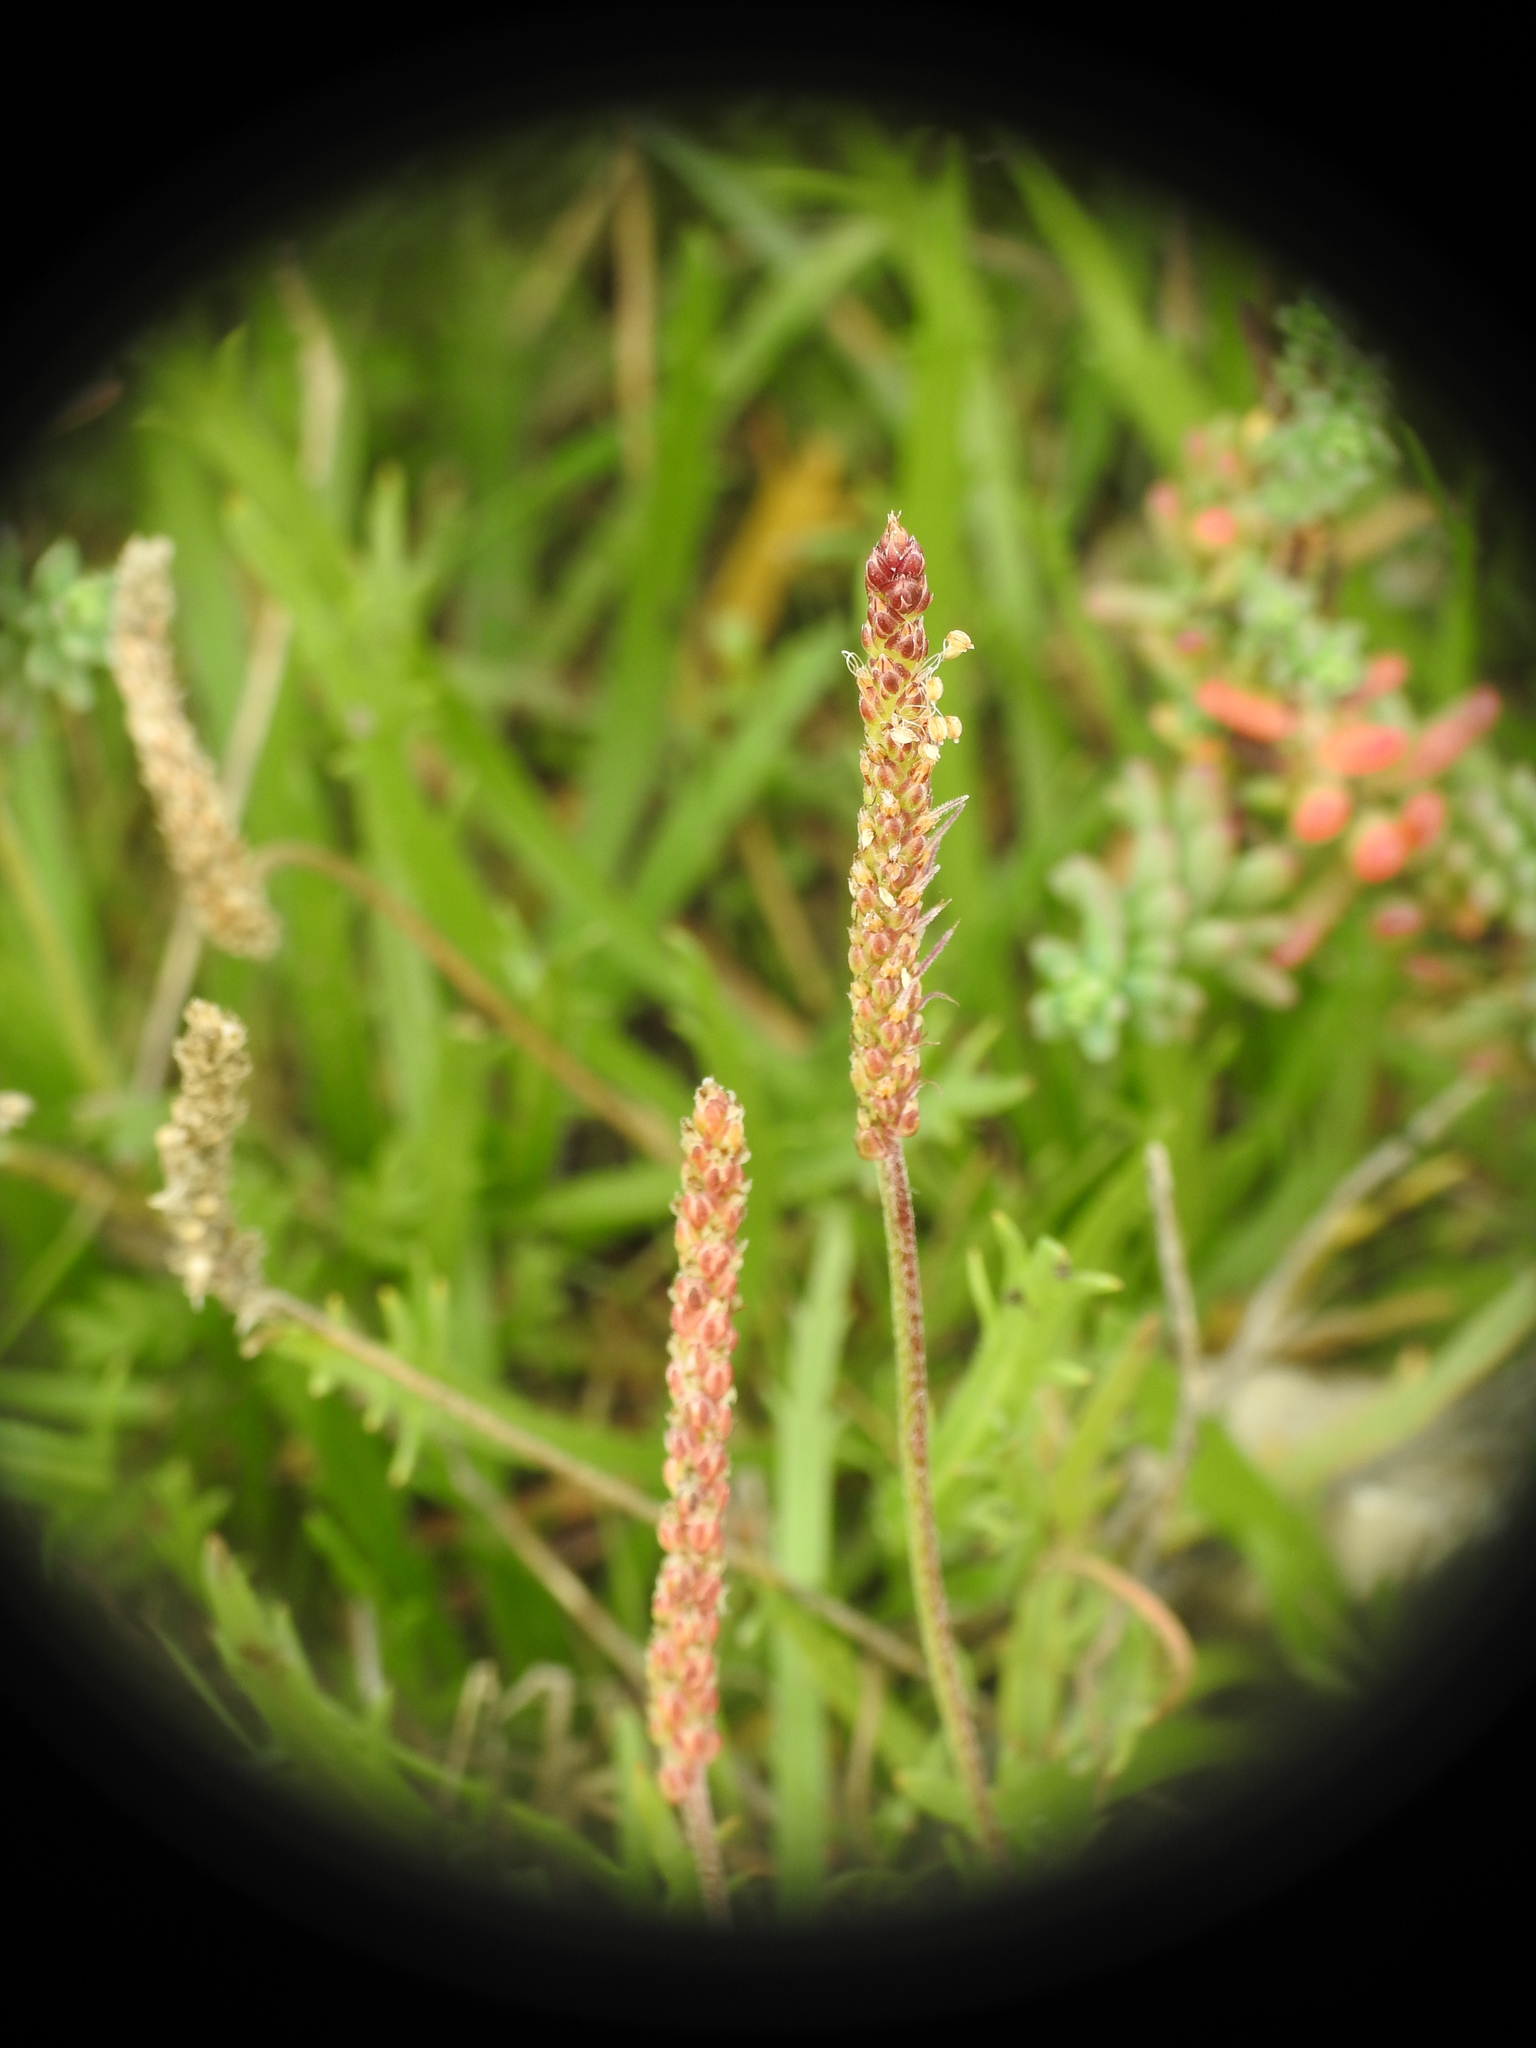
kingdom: Plantae
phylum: Tracheophyta
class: Magnoliopsida
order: Lamiales
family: Plantaginaceae
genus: Plantago
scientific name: Plantago coronopus
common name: Buck's-horn plantain
